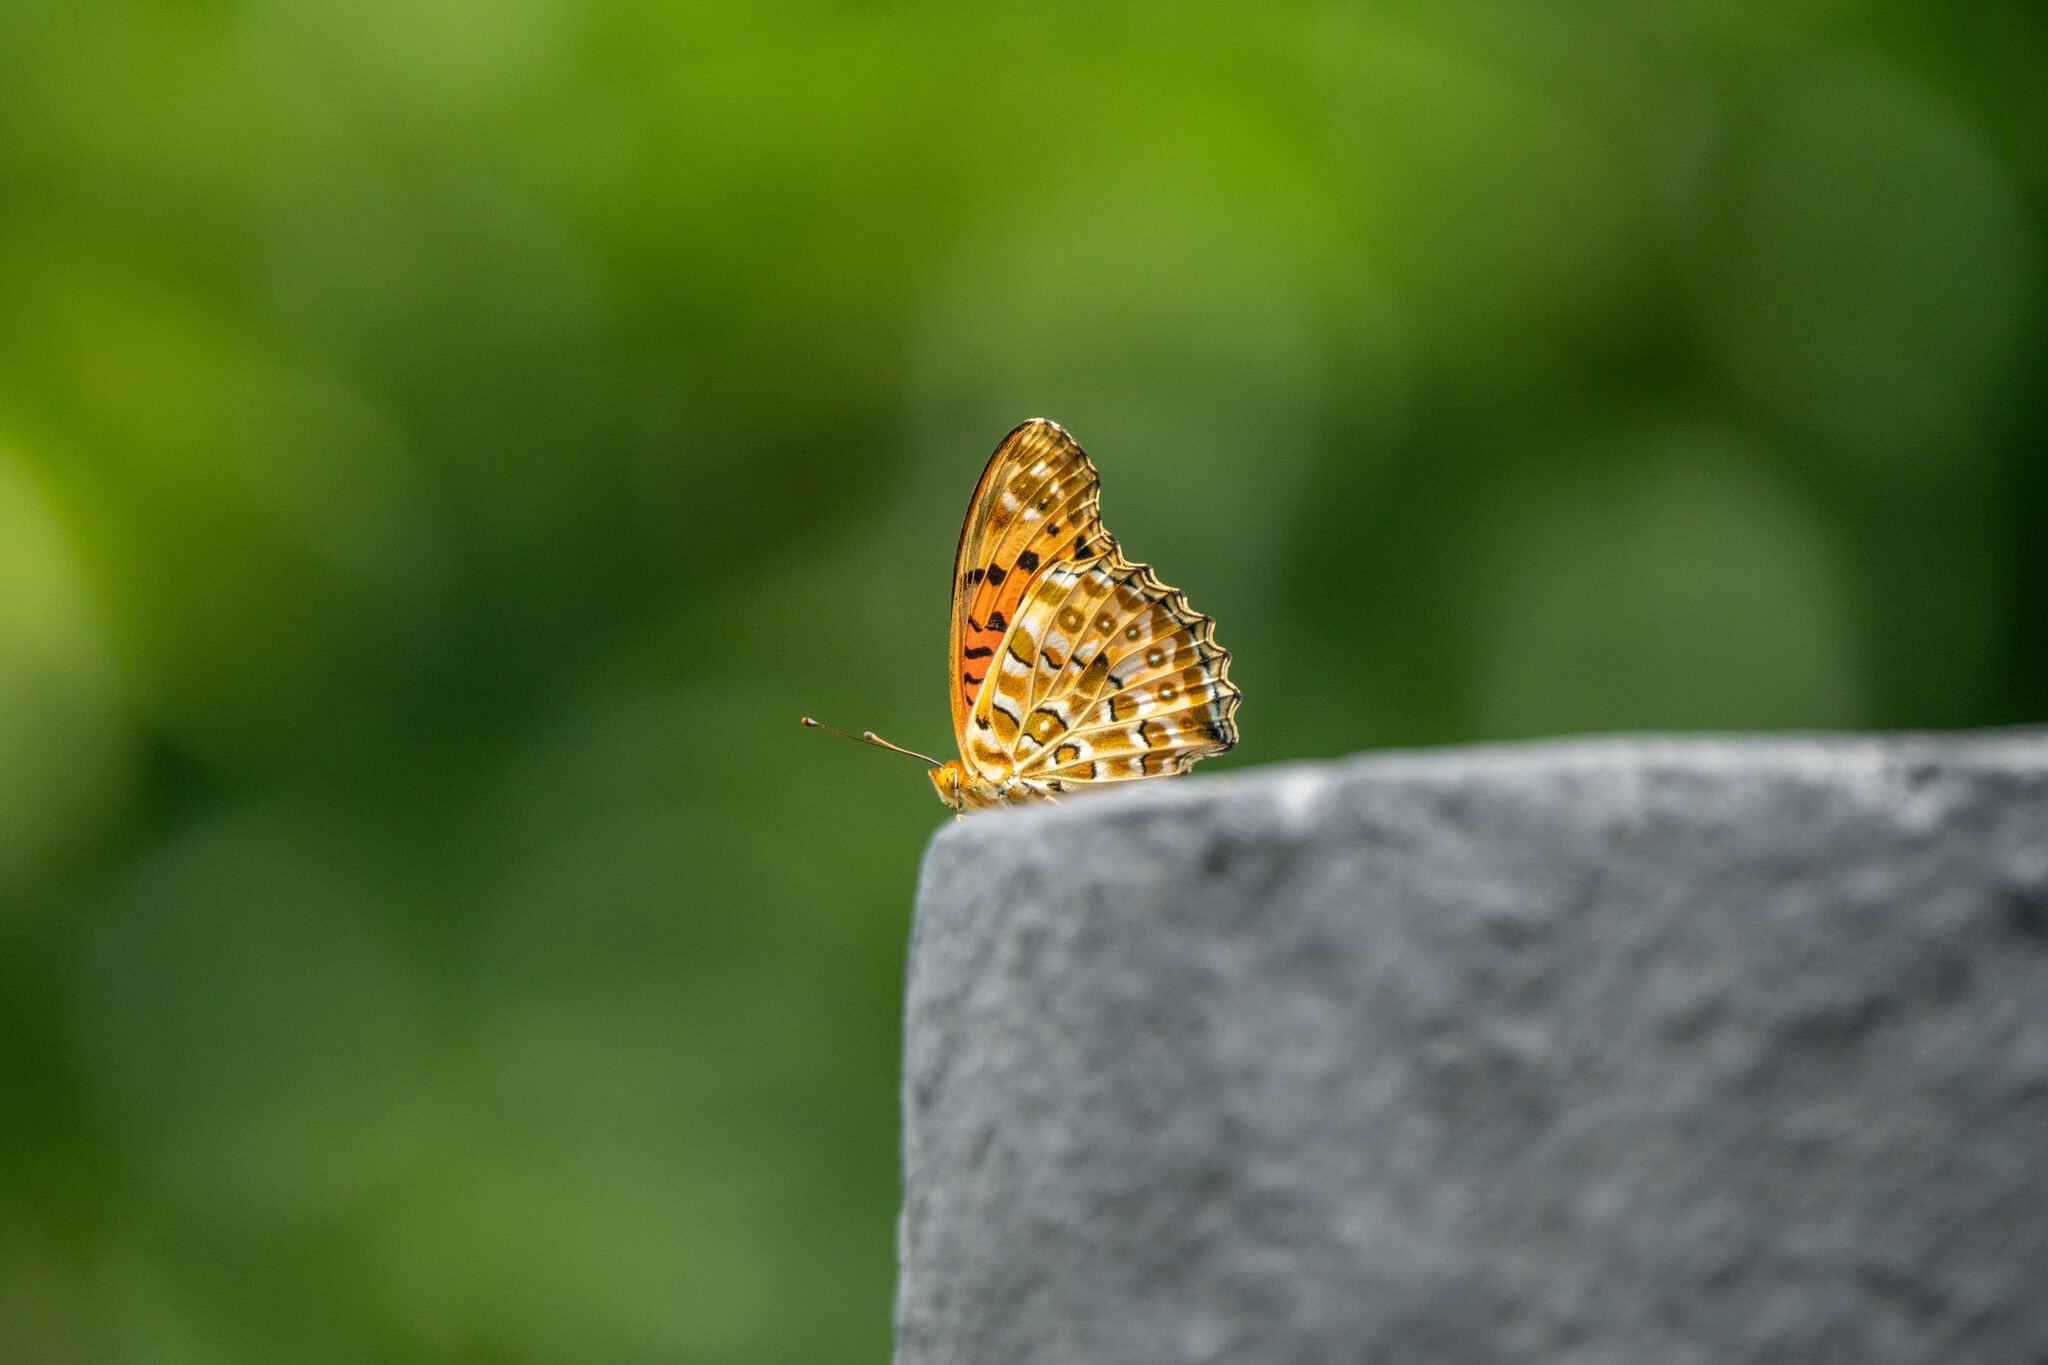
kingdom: Animalia
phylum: Arthropoda
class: Insecta
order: Lepidoptera
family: Nymphalidae
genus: Argynnis
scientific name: Argynnis hyperbius
